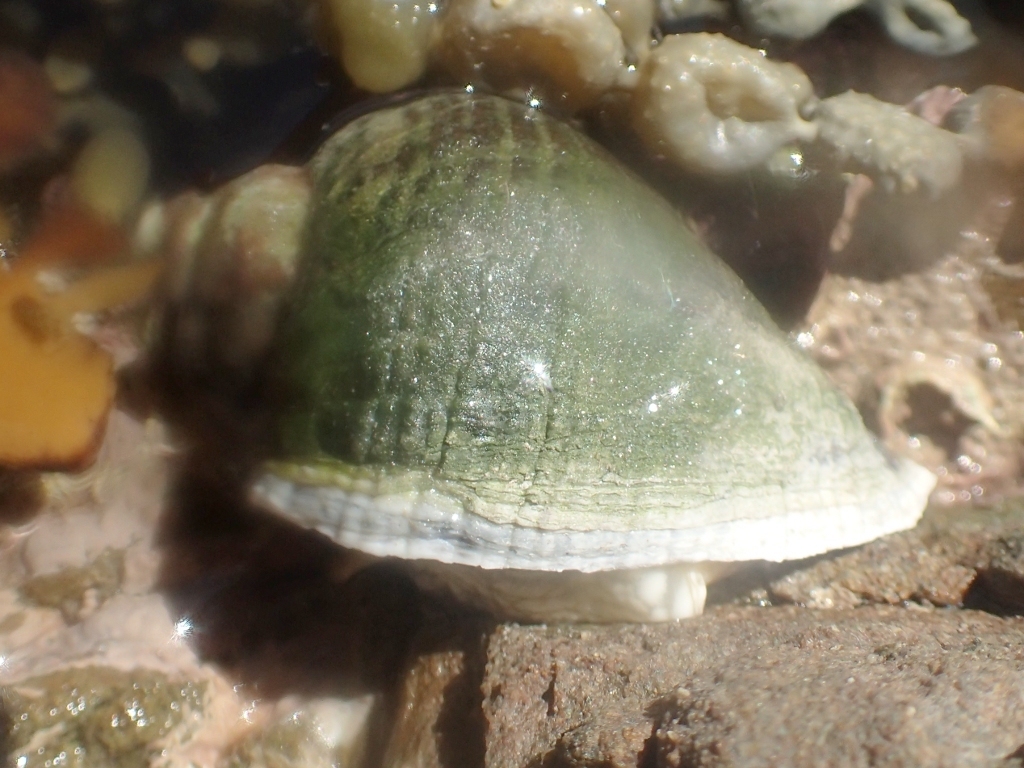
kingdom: Animalia
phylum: Mollusca
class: Gastropoda
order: Neogastropoda
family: Muricidae
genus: Haustrum
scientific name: Haustrum haustorium
